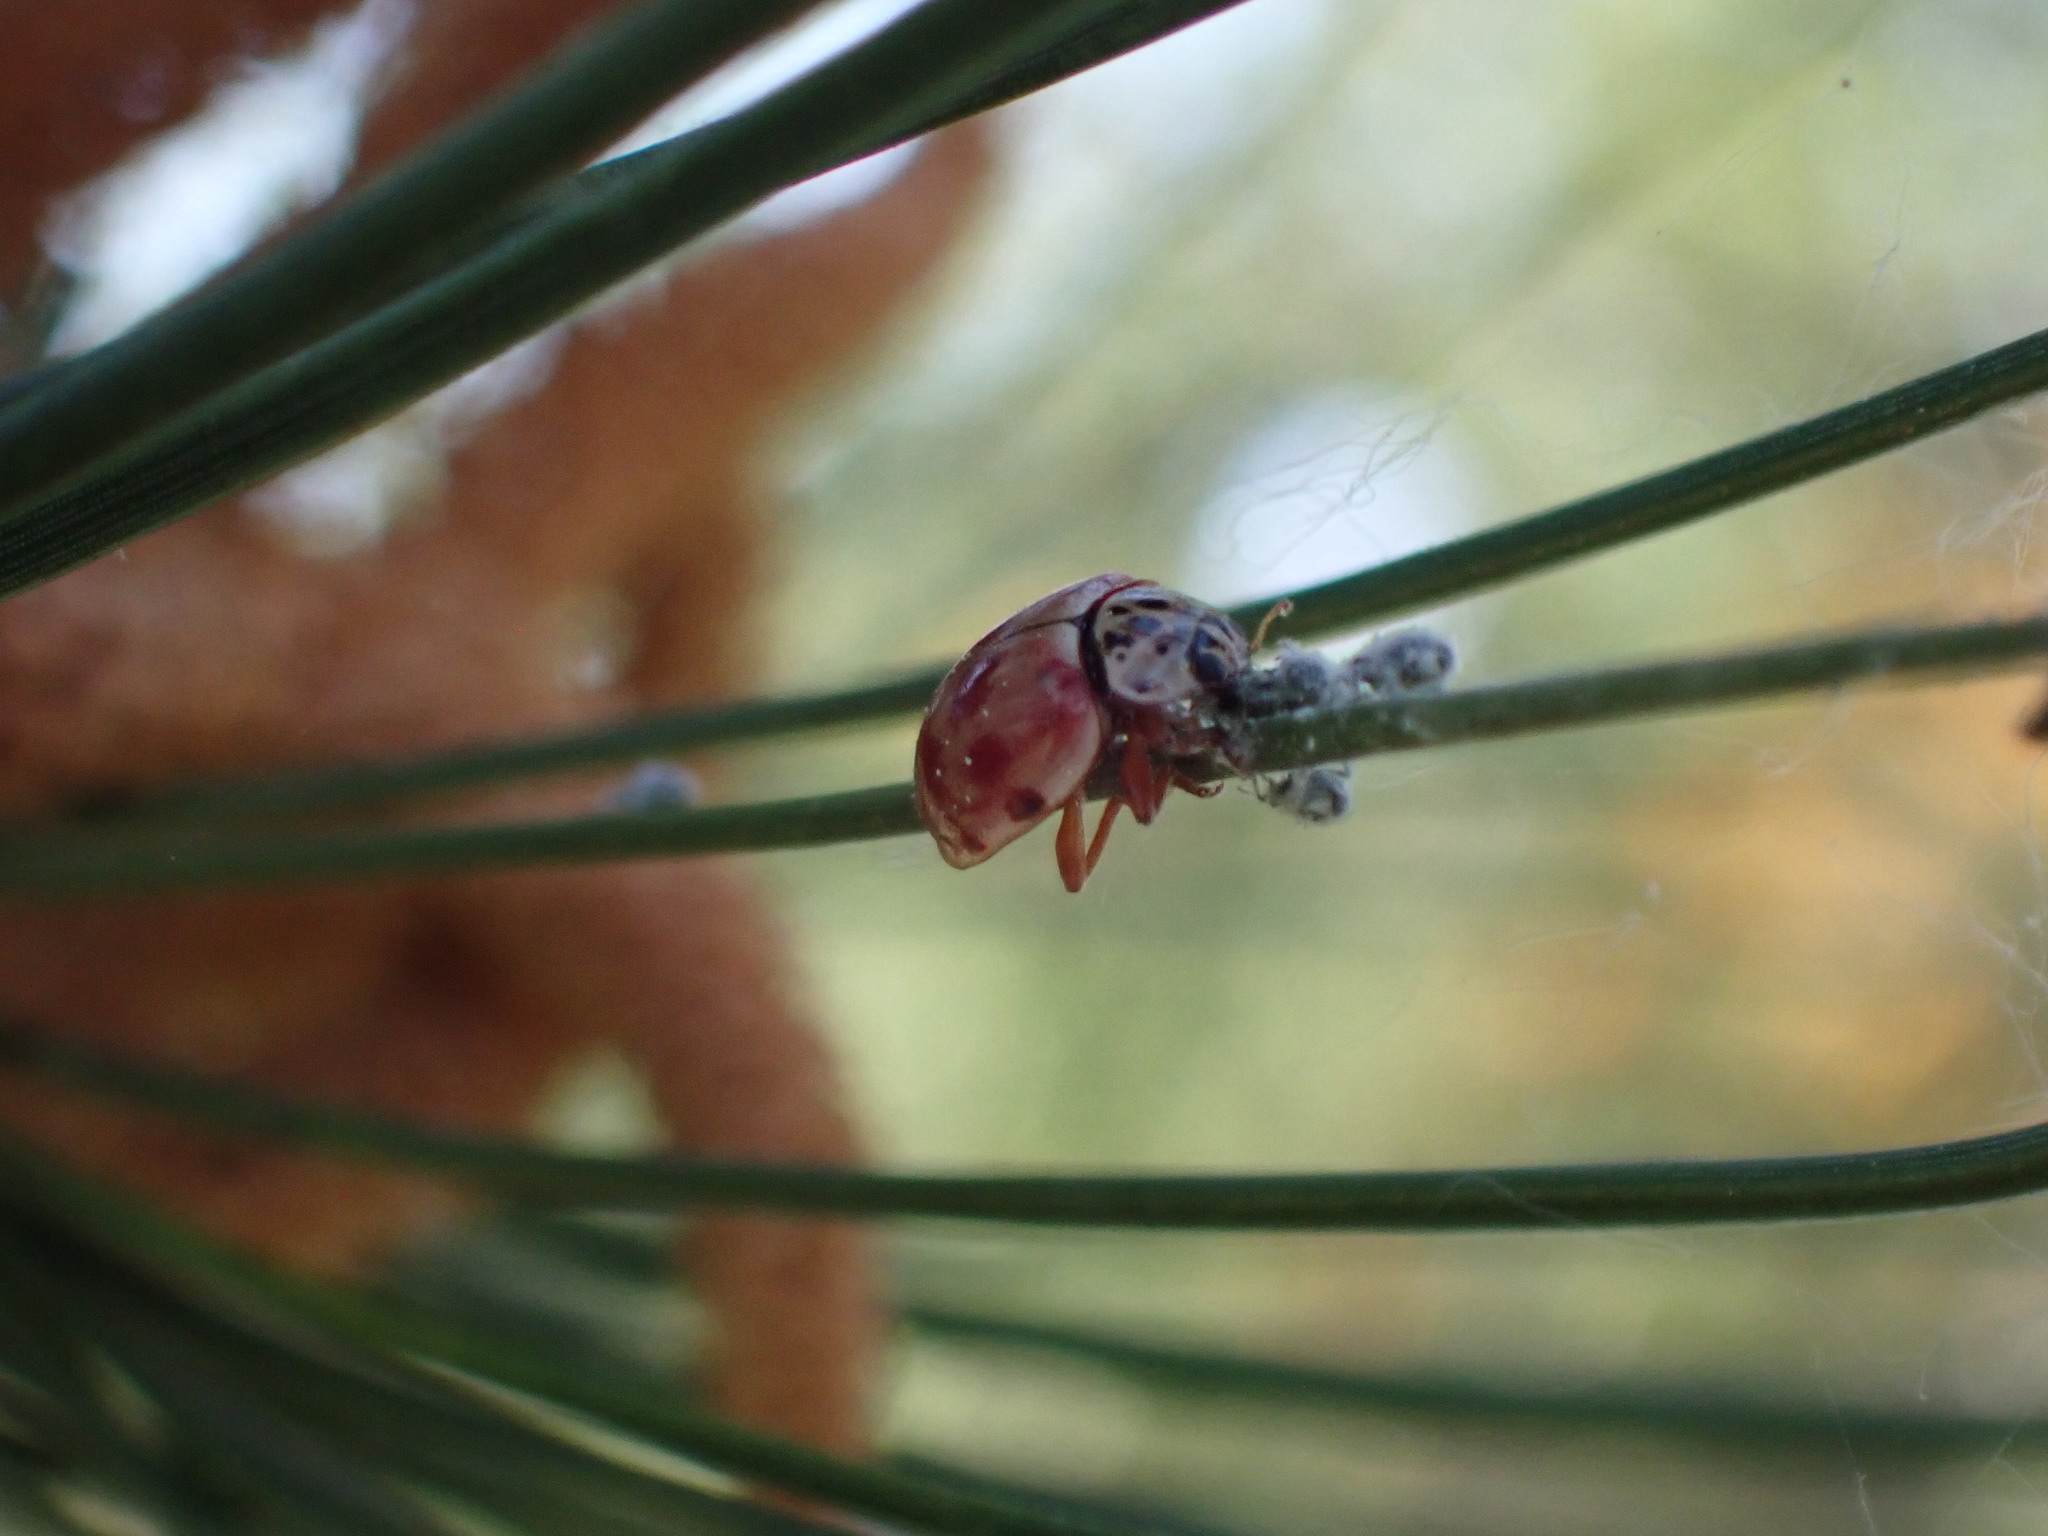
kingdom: Animalia
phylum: Arthropoda
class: Insecta
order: Coleoptera
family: Coccinellidae
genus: Harmonia
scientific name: Harmonia quadripunctata
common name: Cream-streaked ladybird
